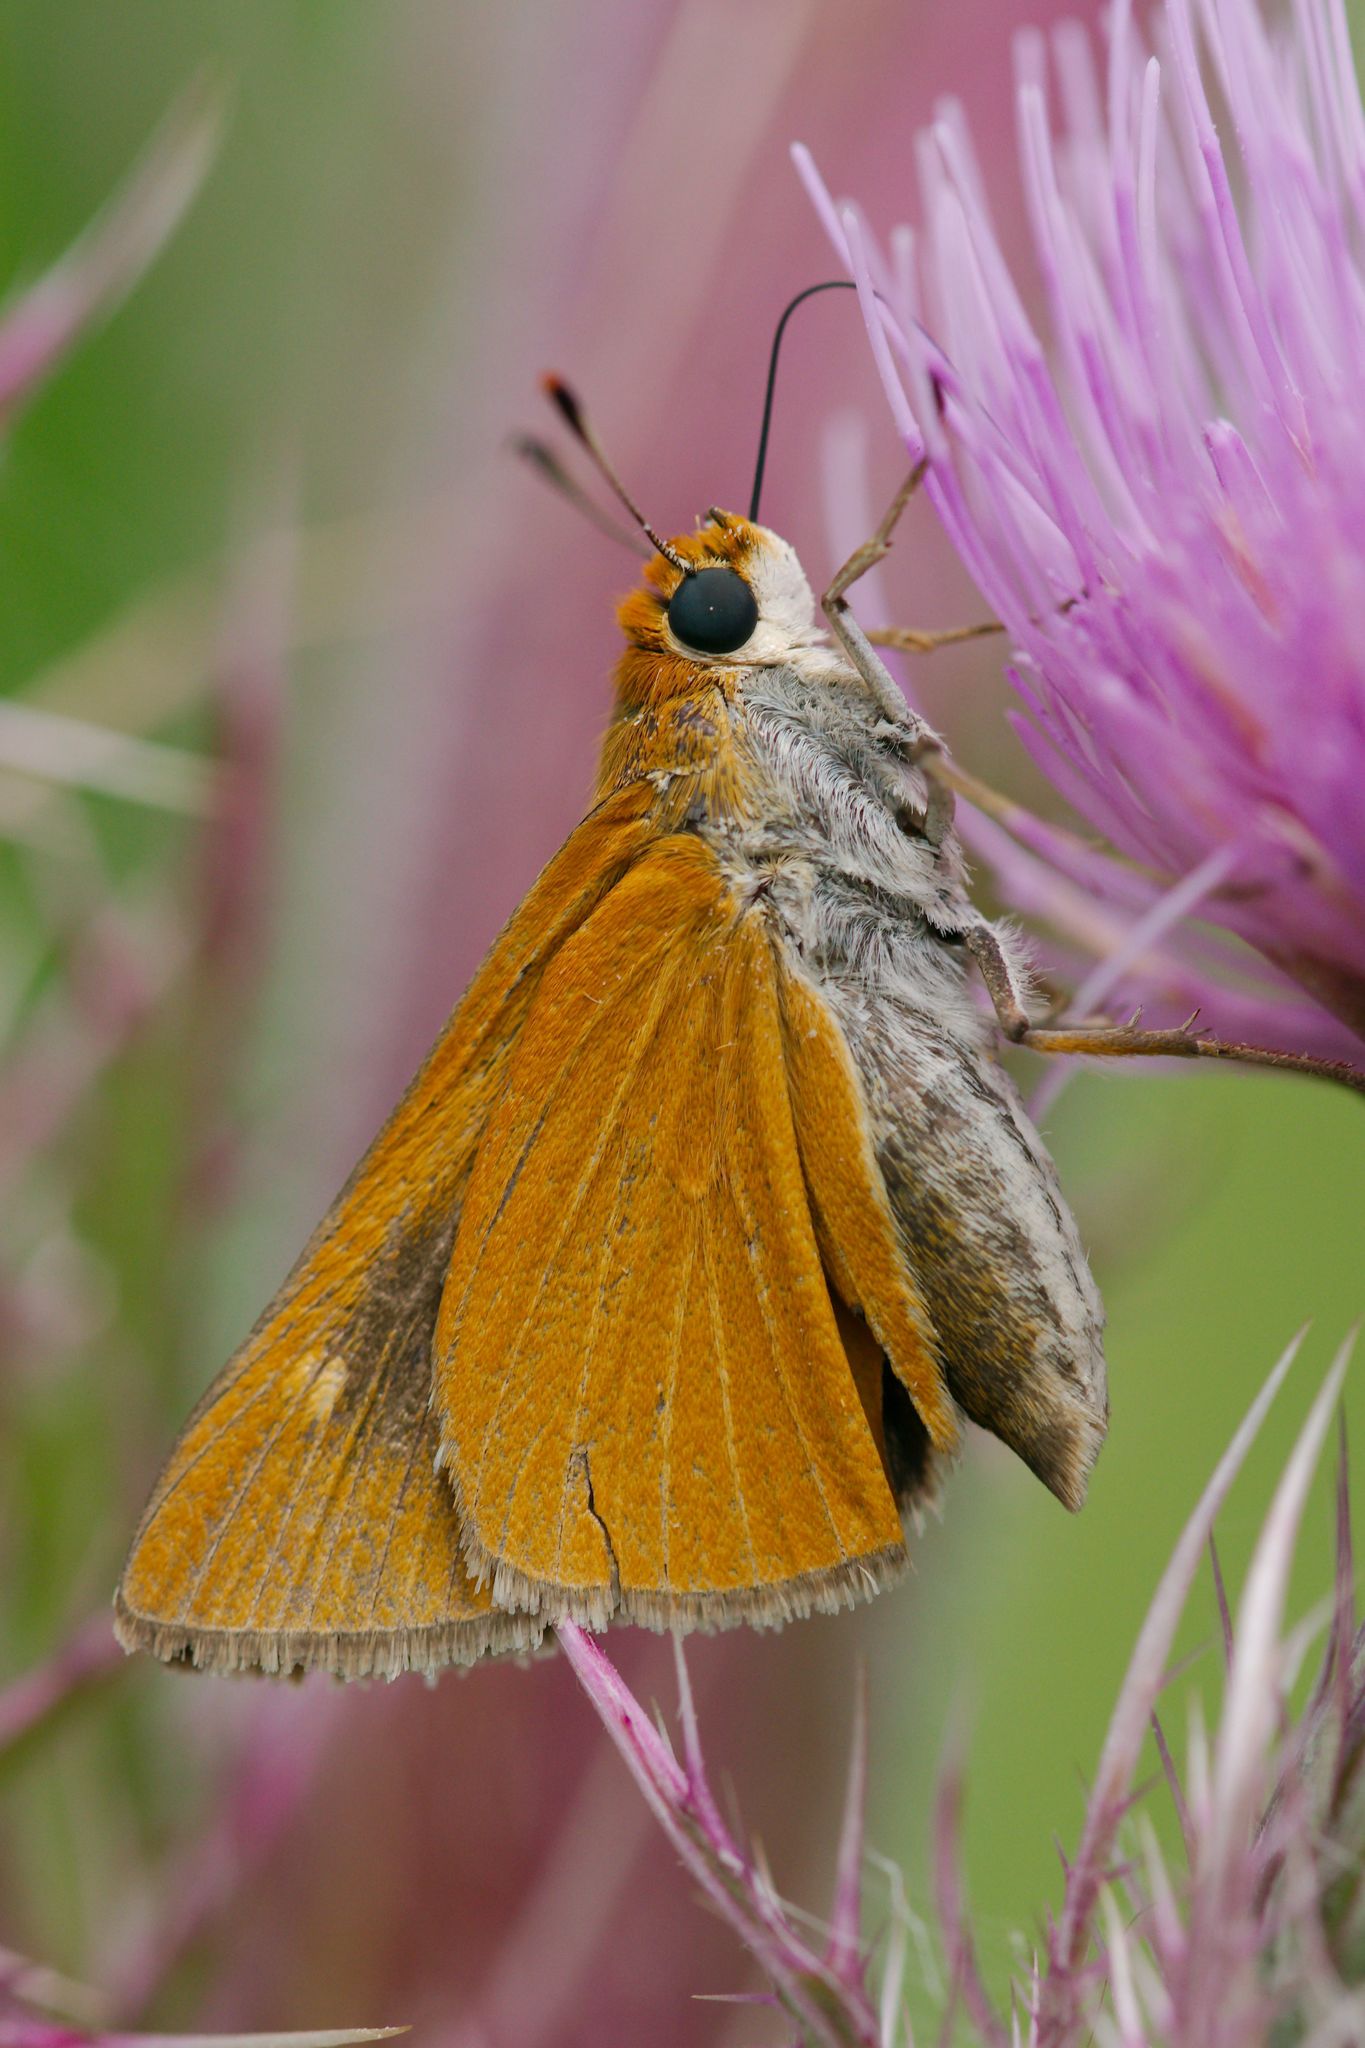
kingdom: Animalia
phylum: Arthropoda
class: Insecta
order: Lepidoptera
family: Hesperiidae
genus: Euphyes
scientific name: Euphyes arpa
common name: Palmetto skipper
